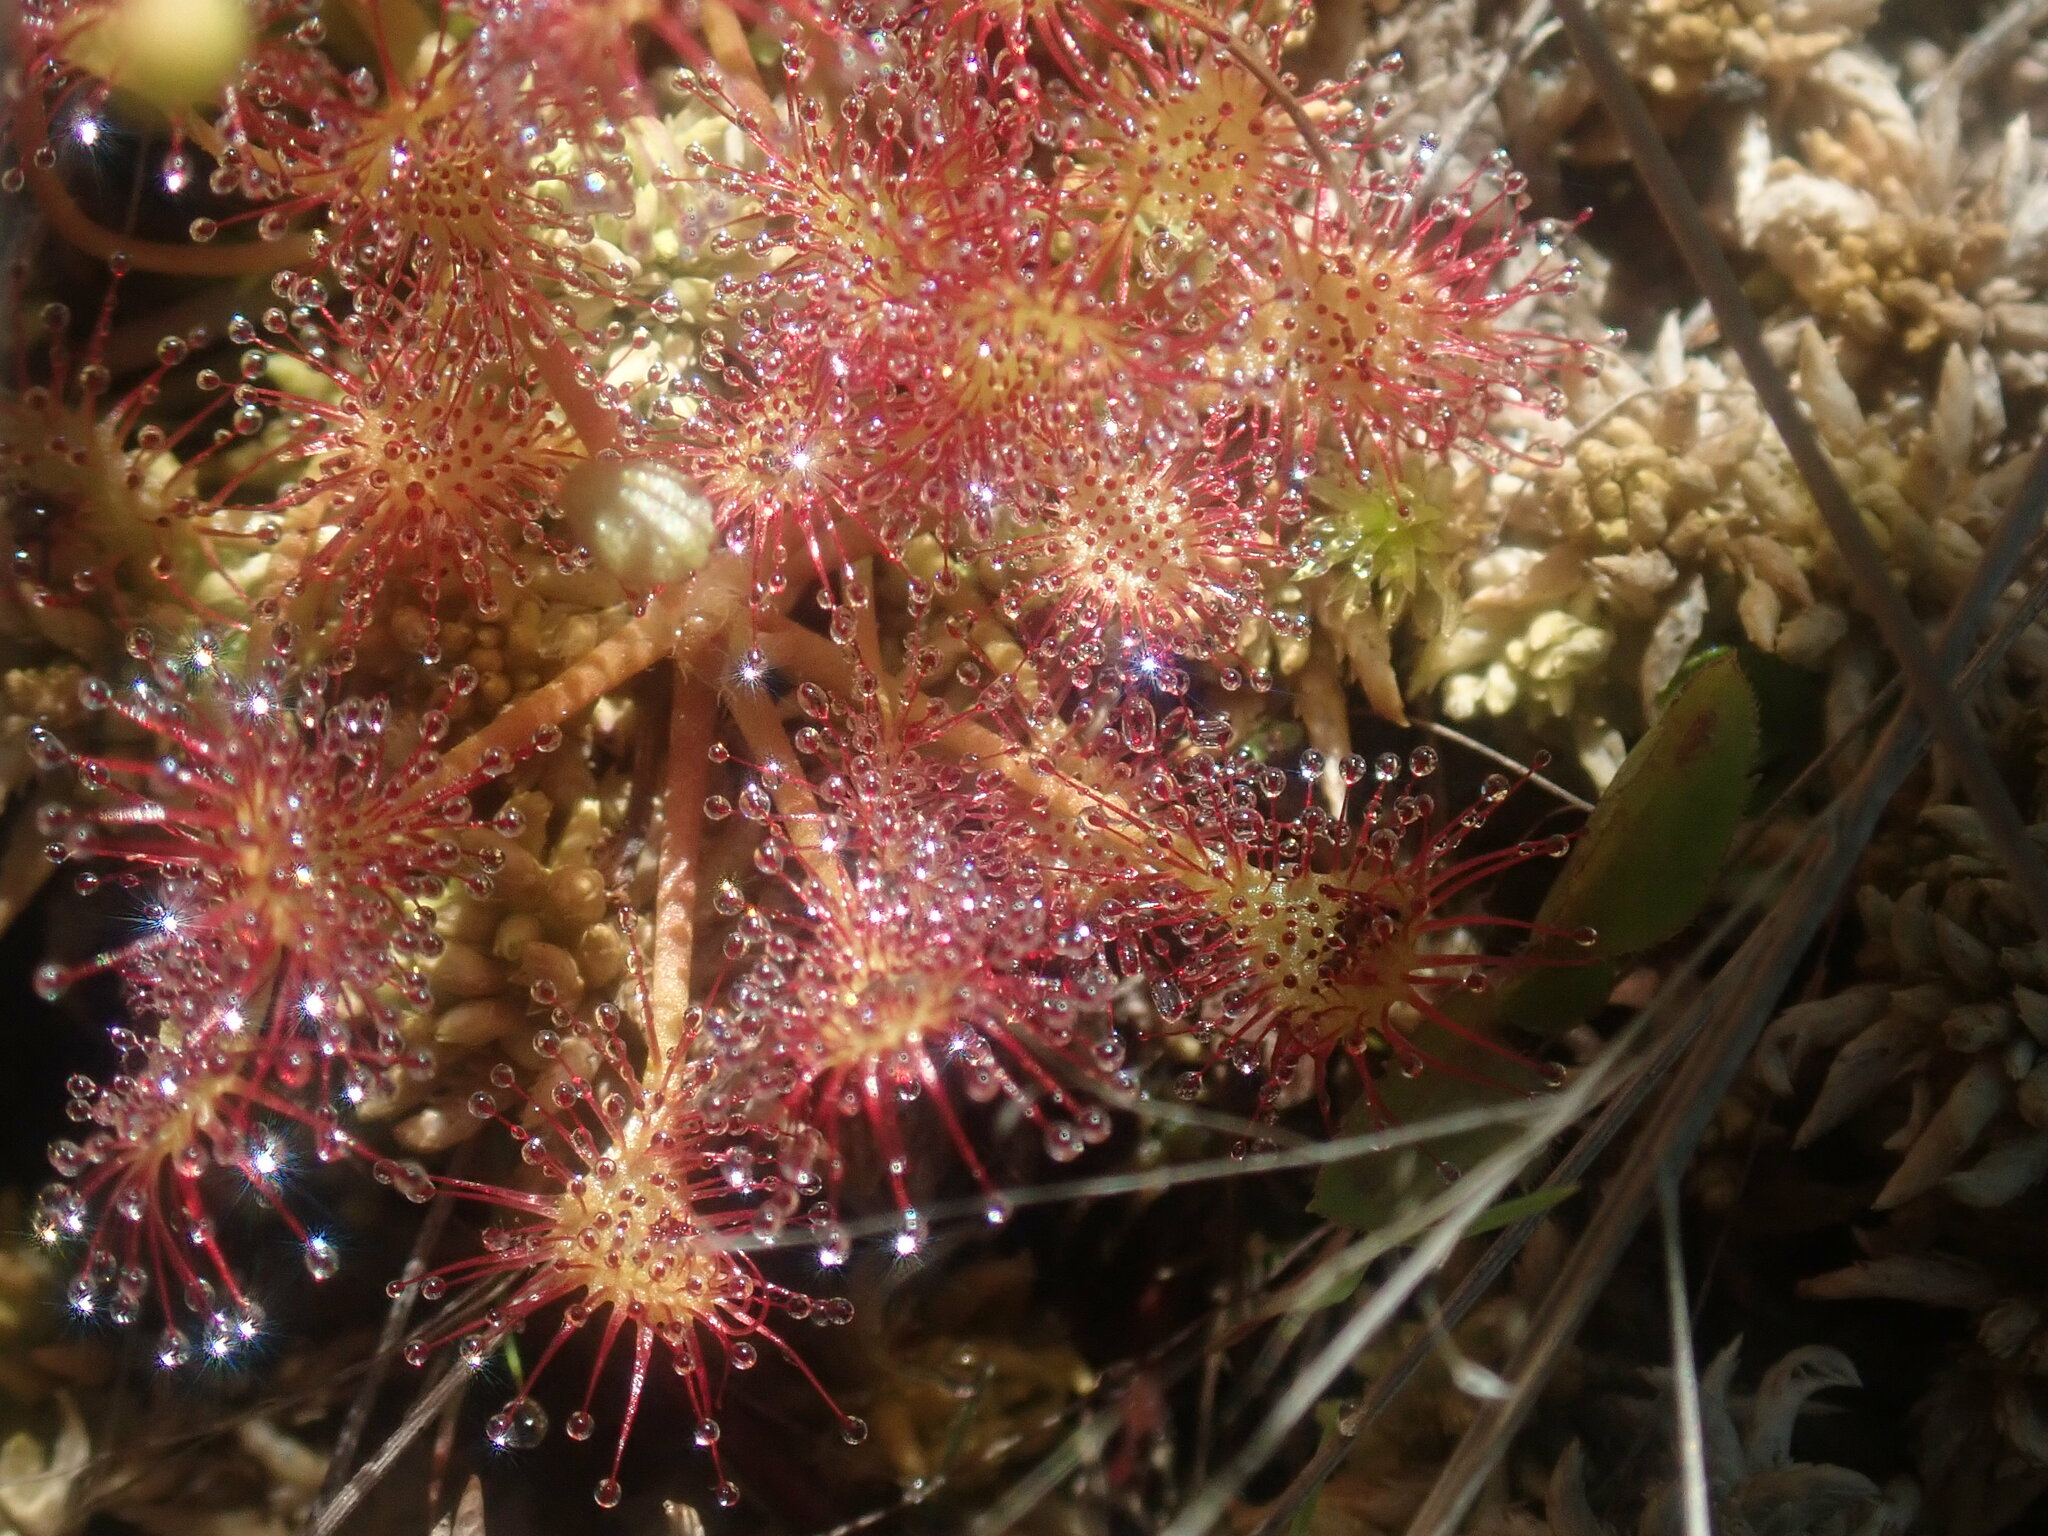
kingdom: Plantae
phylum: Tracheophyta
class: Magnoliopsida
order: Caryophyllales
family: Droseraceae
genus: Drosera
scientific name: Drosera rotundifolia
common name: Round-leaved sundew
